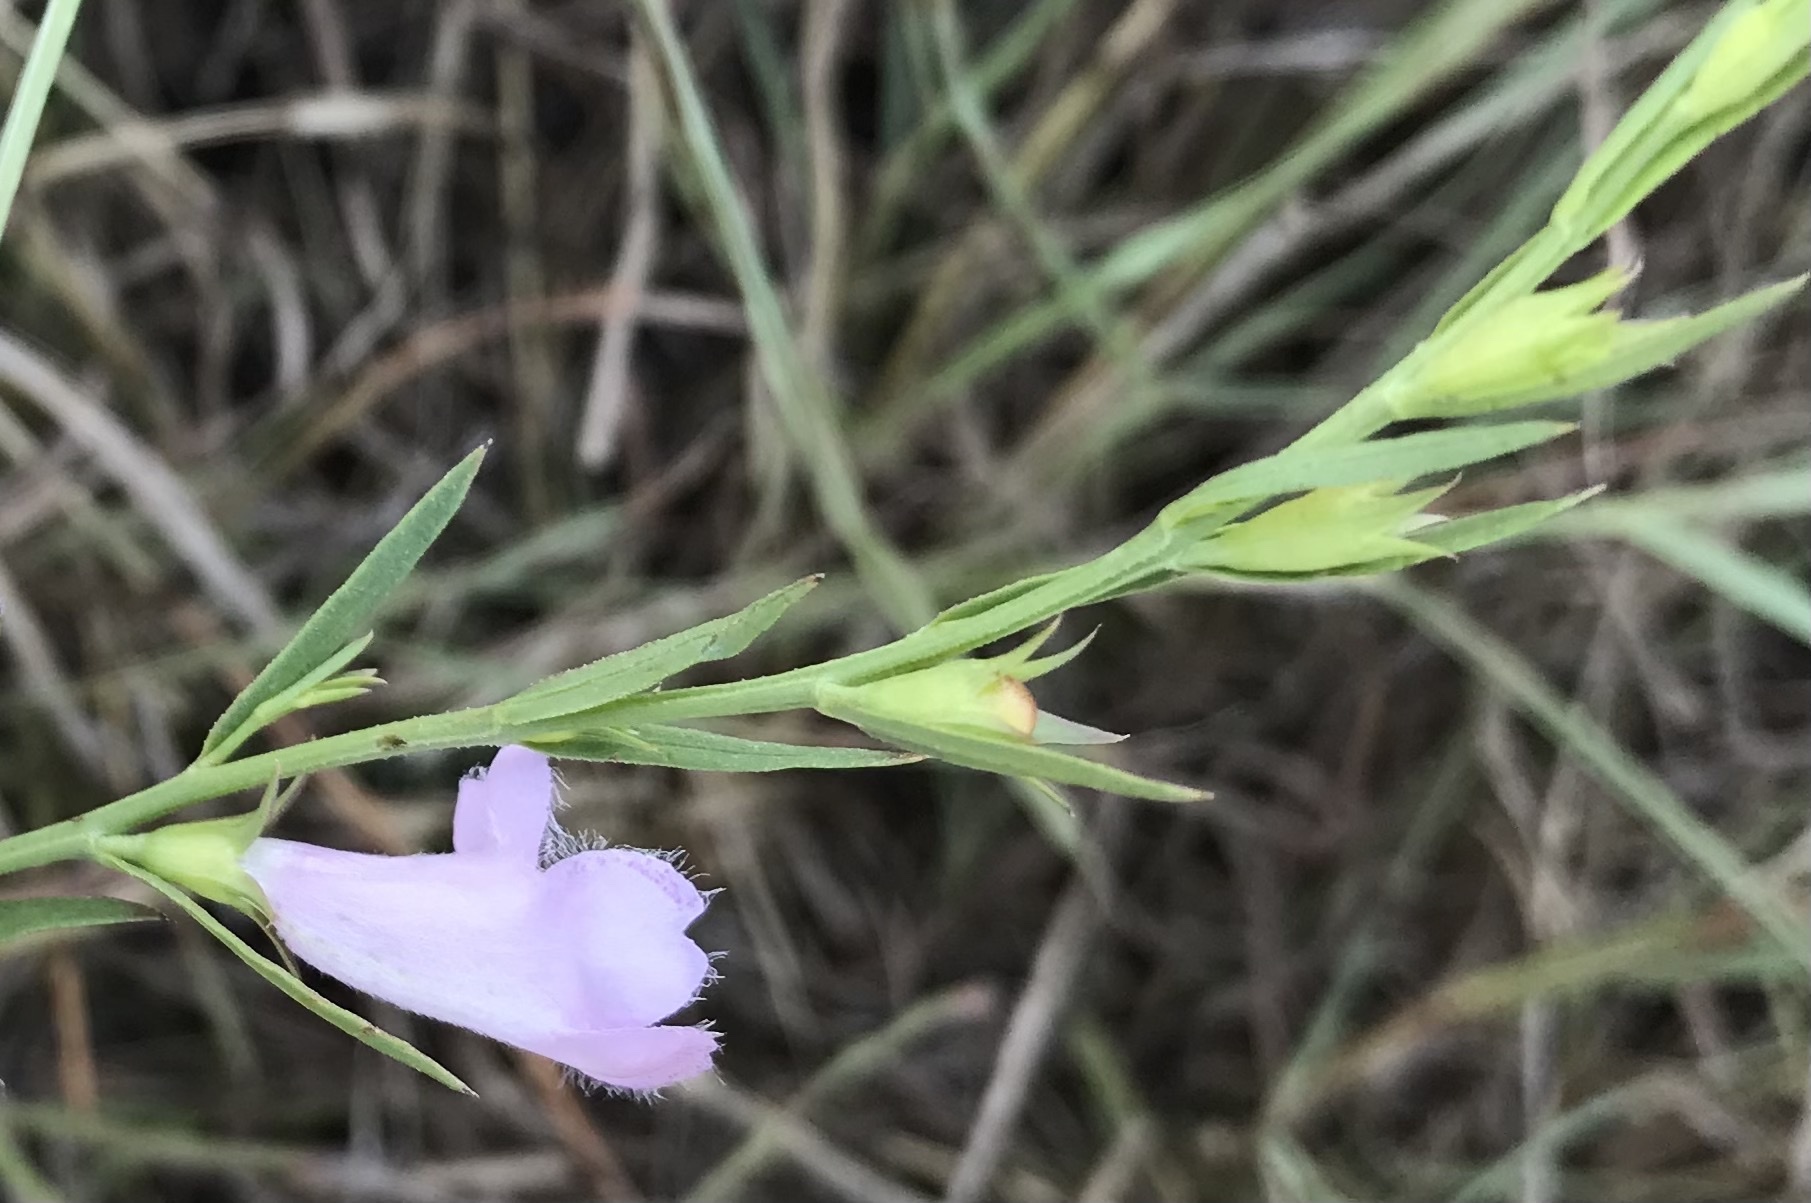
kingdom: Plantae
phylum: Tracheophyta
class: Magnoliopsida
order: Lamiales
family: Orobanchaceae
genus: Agalinis
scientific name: Agalinis heterophylla
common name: Prairie agalinis
